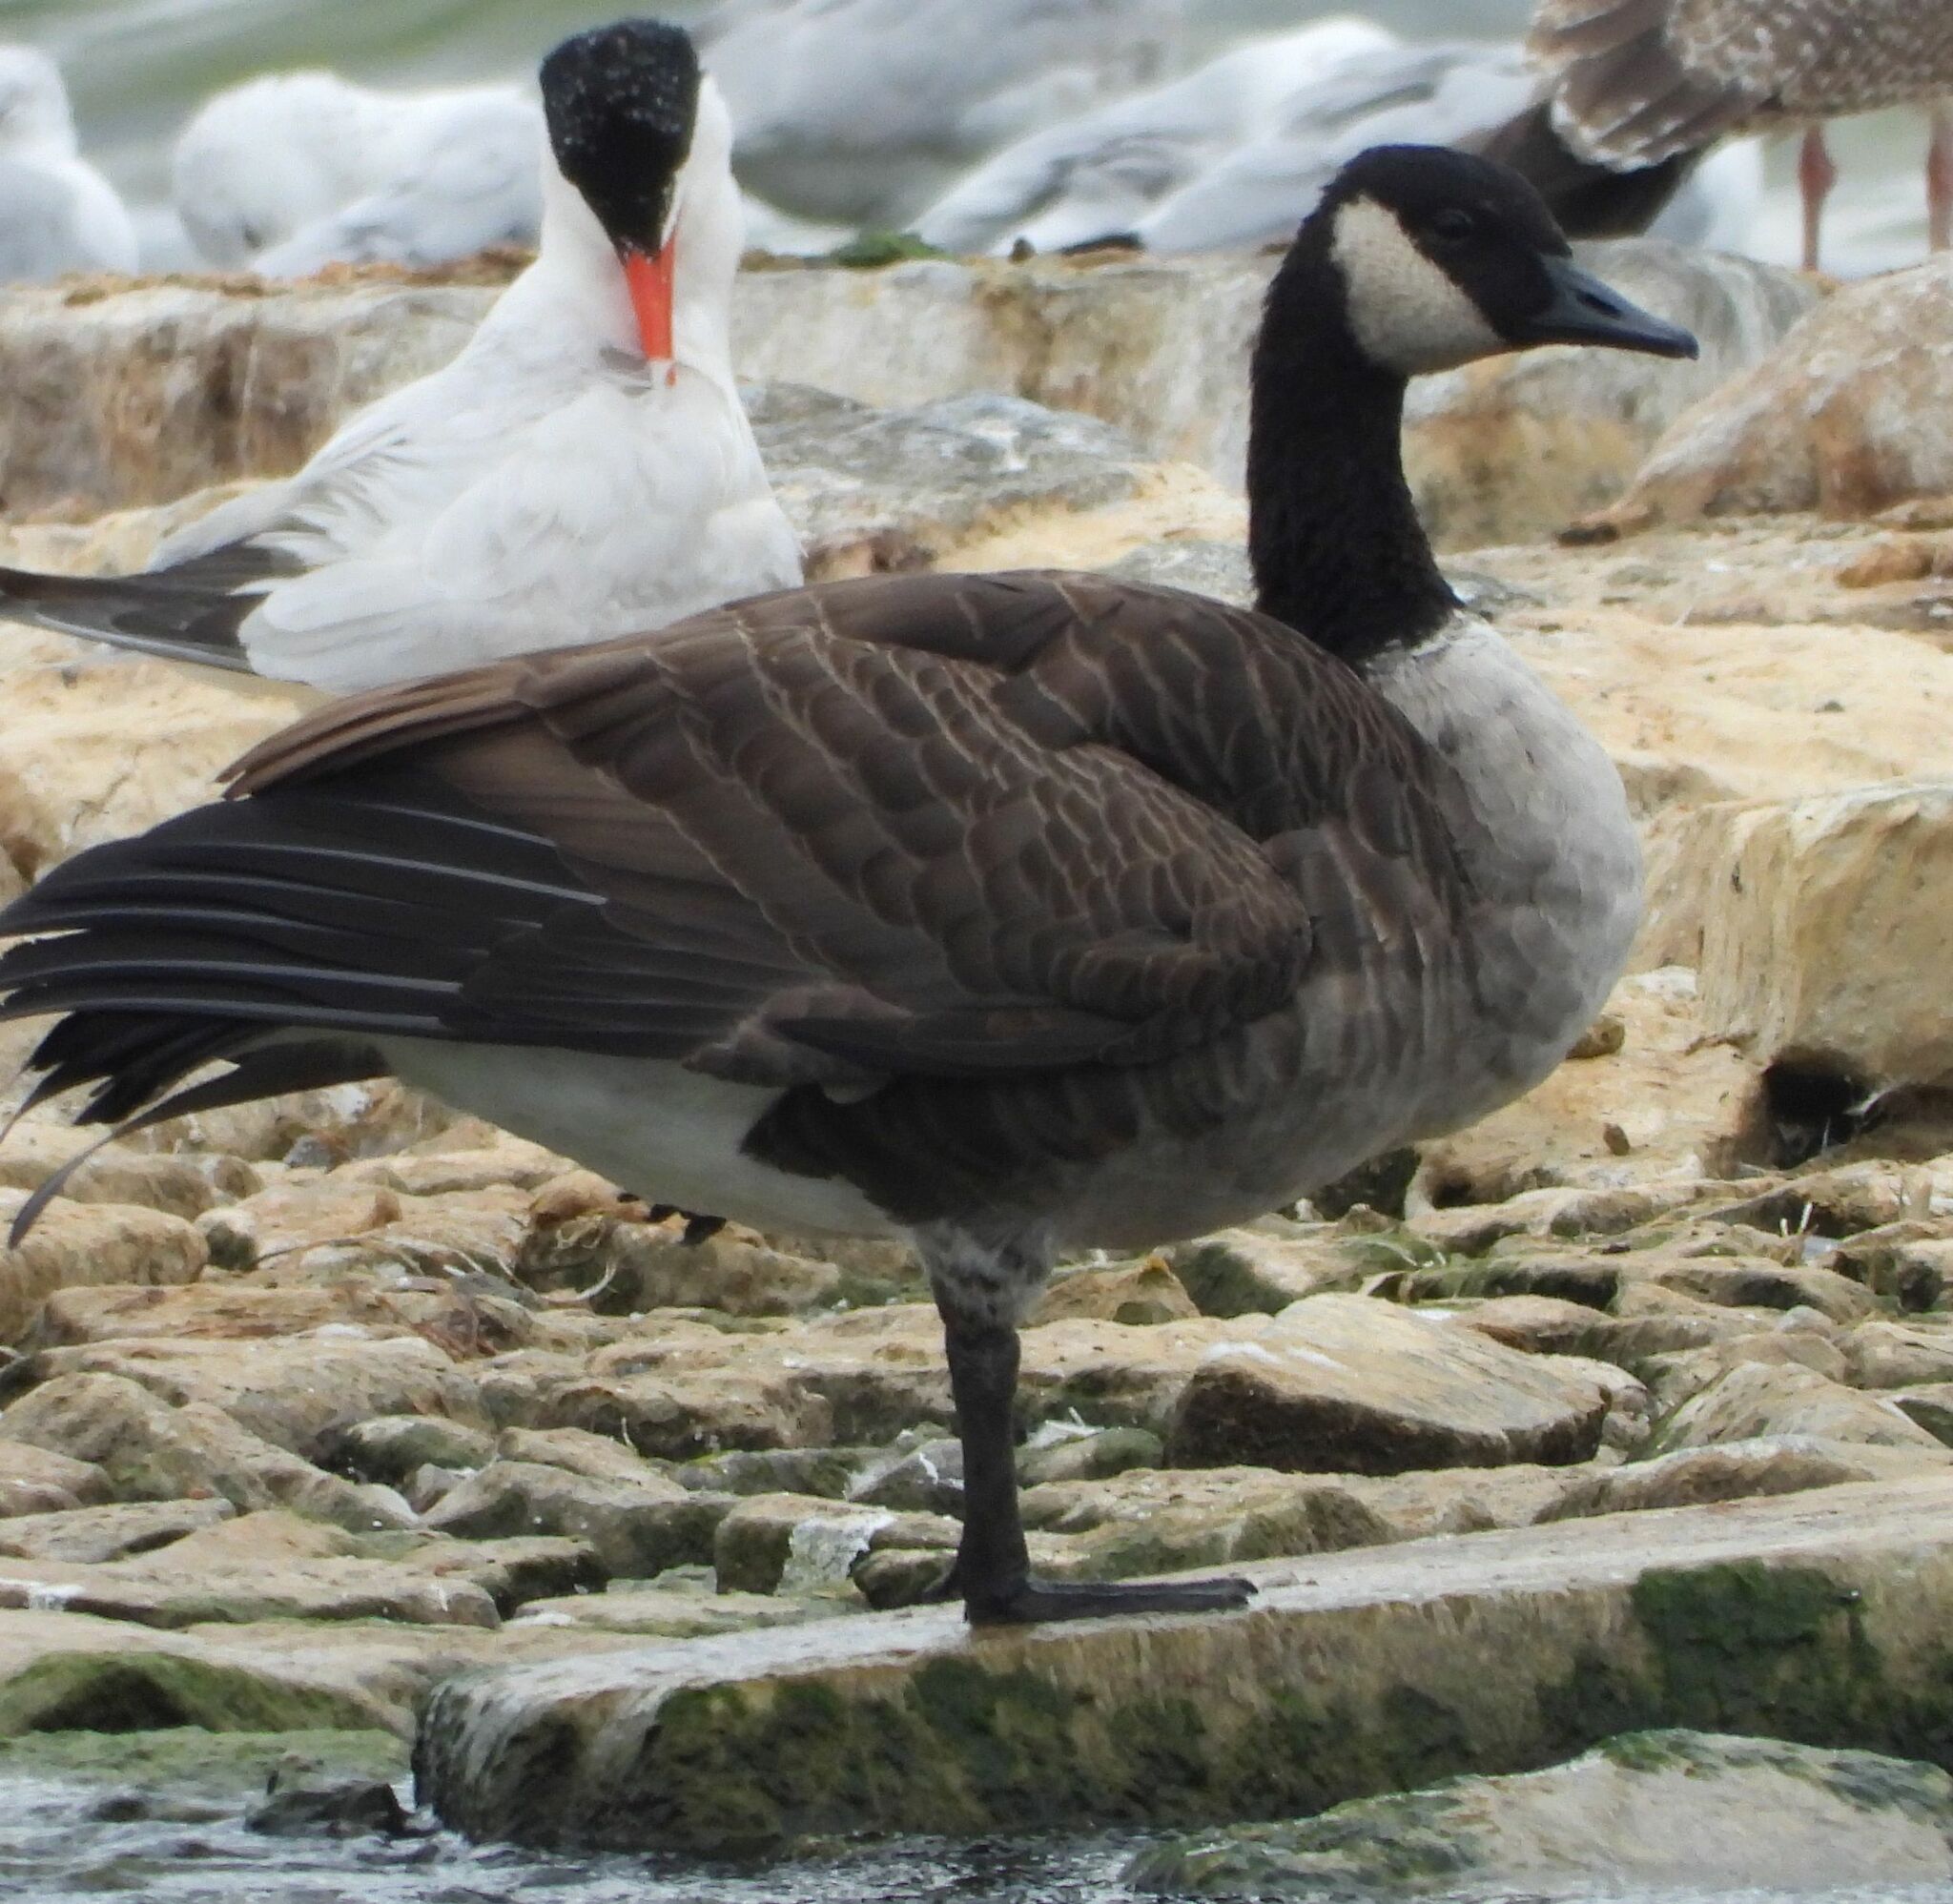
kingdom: Animalia
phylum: Chordata
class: Aves
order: Anseriformes
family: Anatidae
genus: Branta
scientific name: Branta canadensis
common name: Canada goose
